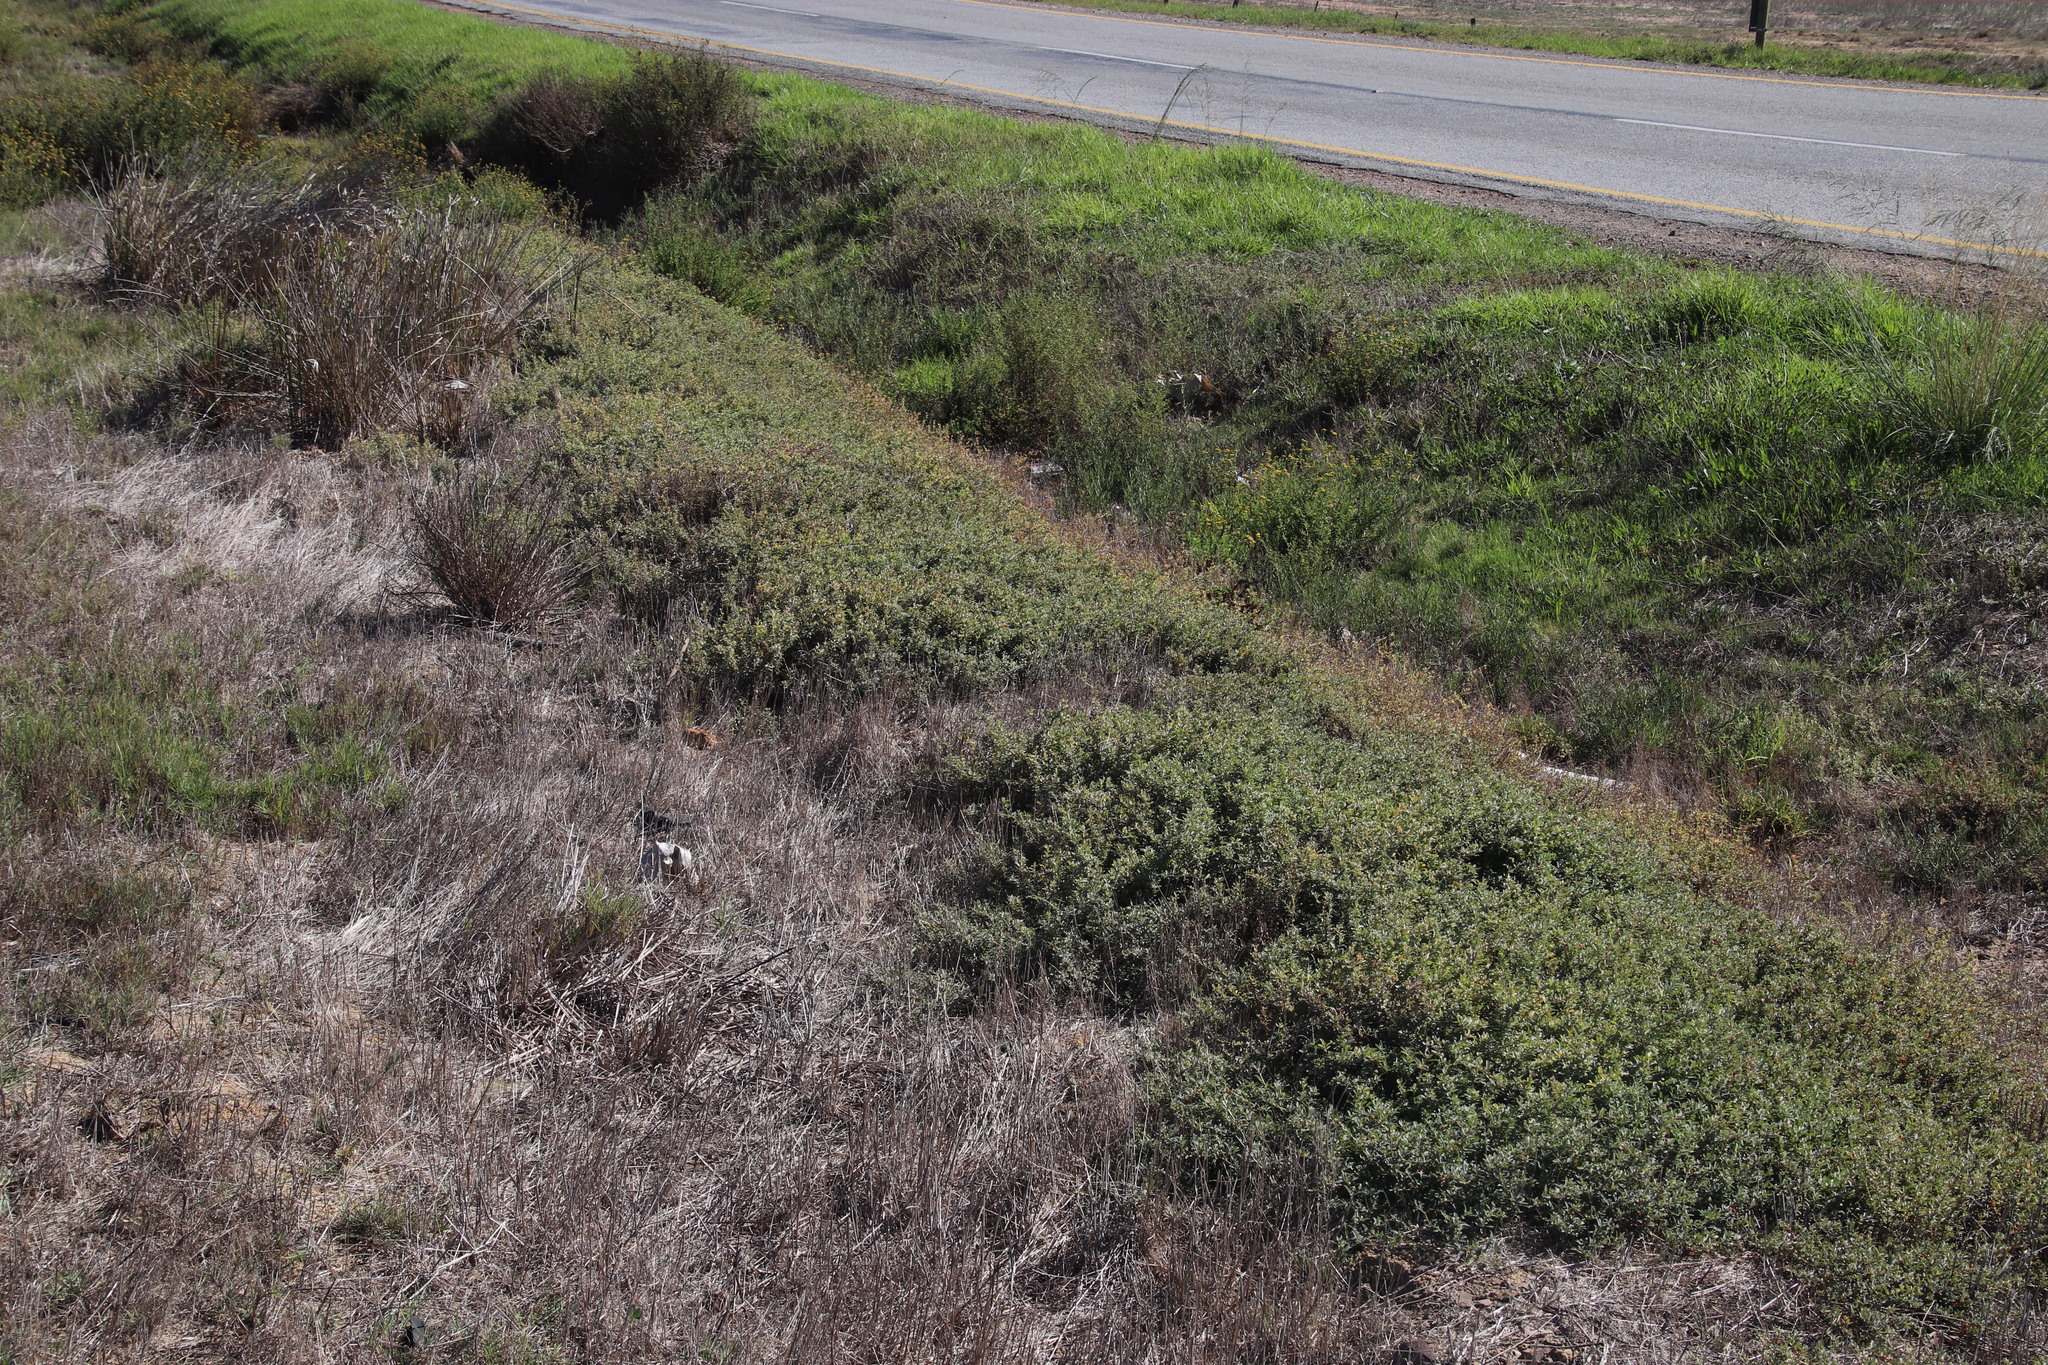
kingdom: Plantae
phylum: Tracheophyta
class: Magnoliopsida
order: Caryophyllales
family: Amaranthaceae
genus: Atriplex
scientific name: Atriplex semibaccata
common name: Australian saltbush
